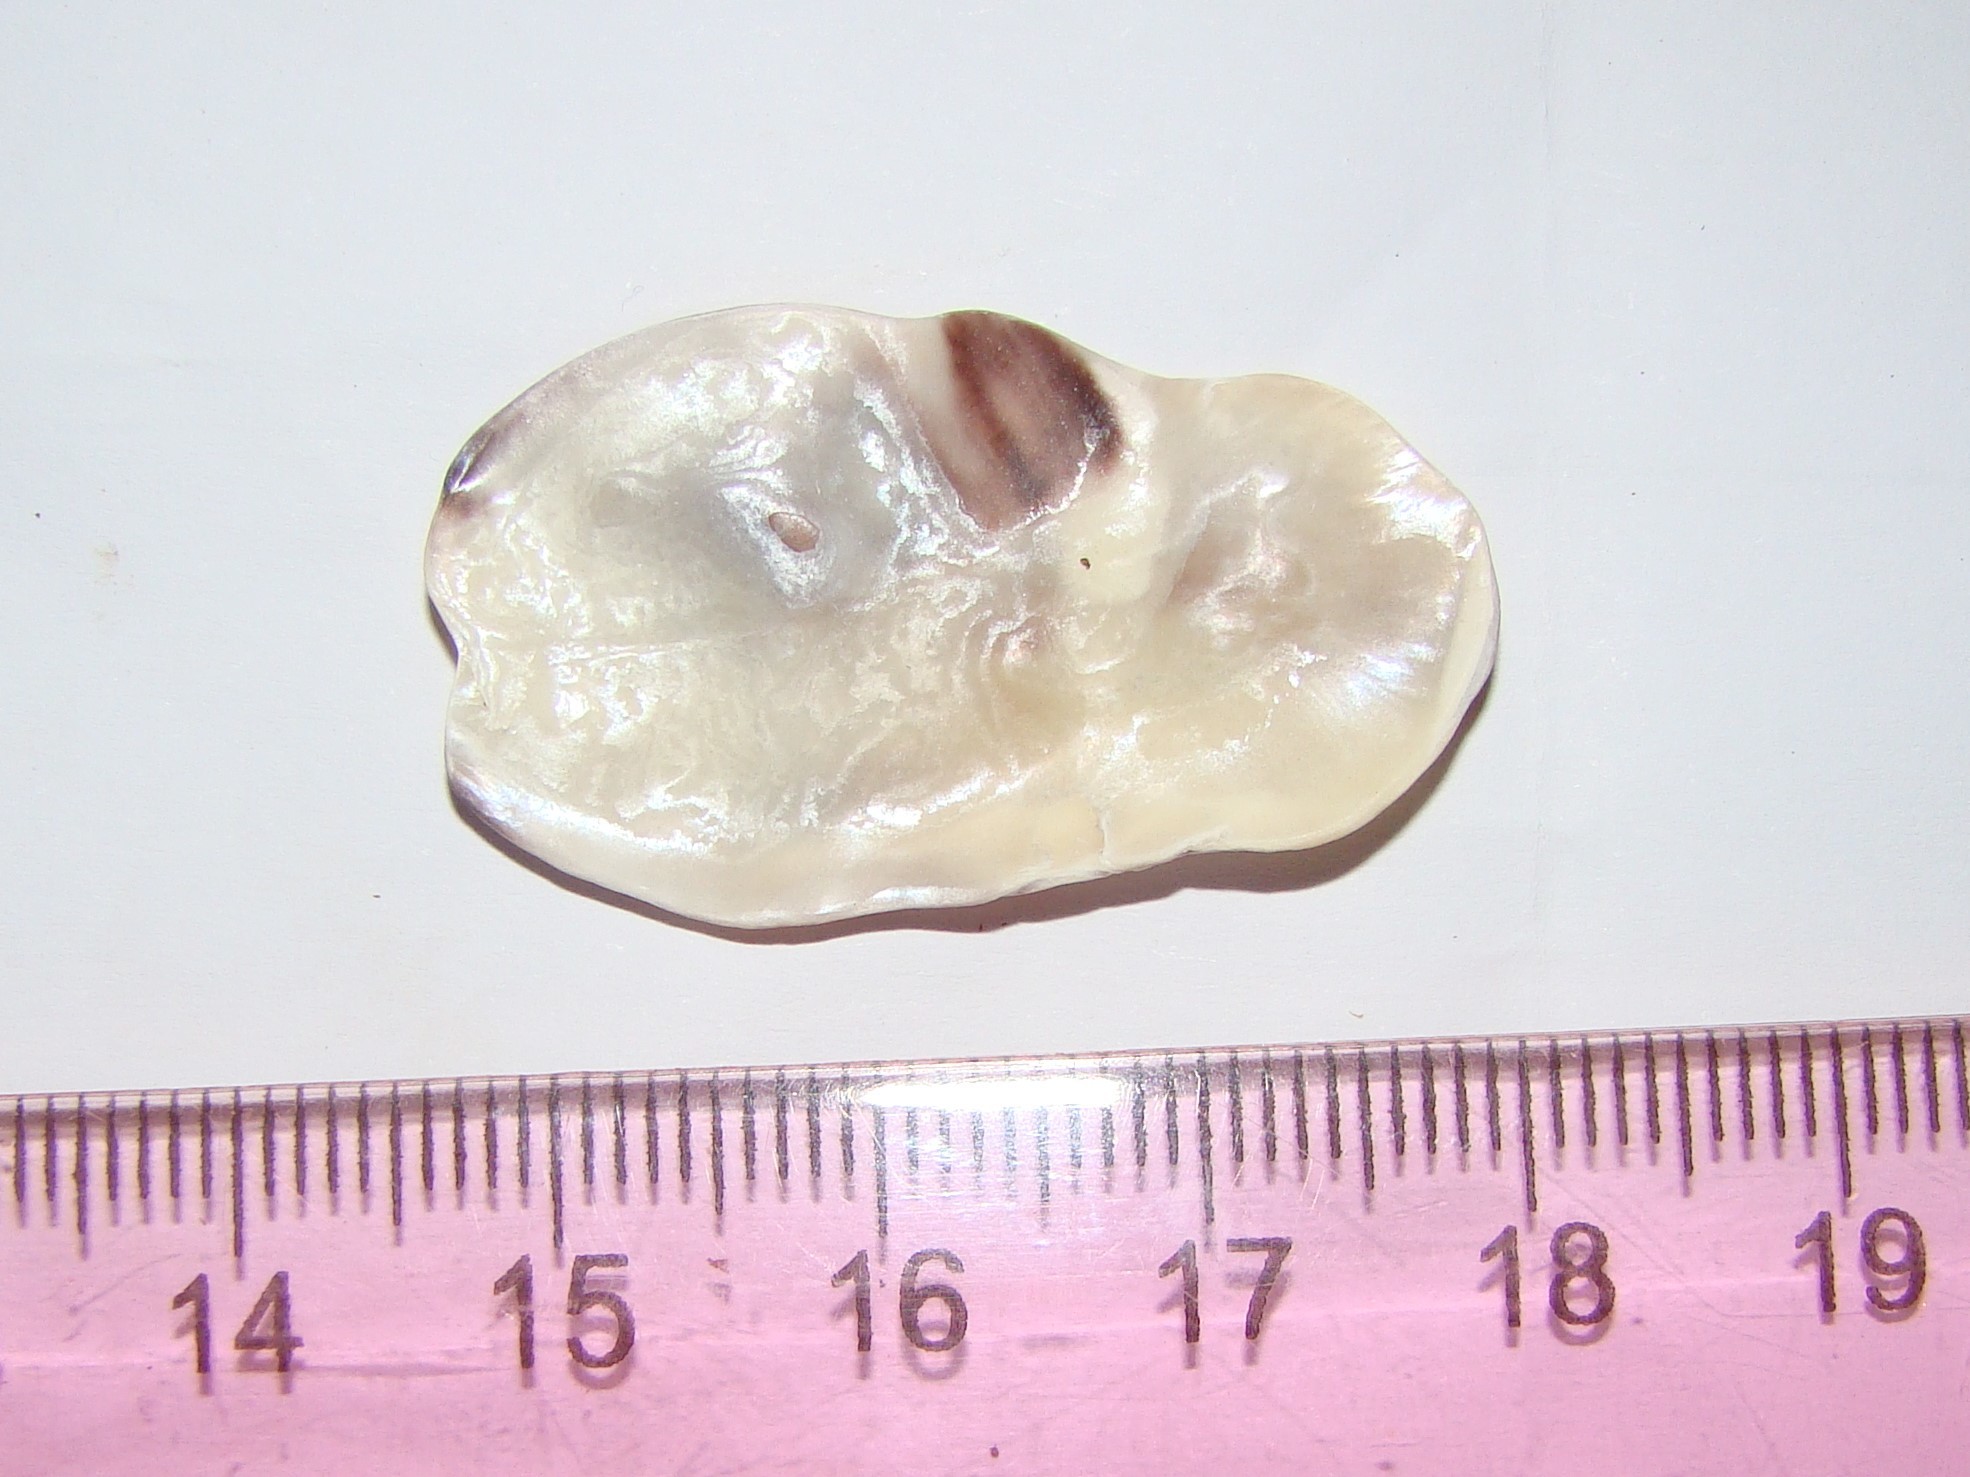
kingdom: Animalia
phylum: Mollusca
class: Bivalvia
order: Ostreida
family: Ostreidae
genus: Magallana
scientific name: Magallana gigas
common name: Pacific oyster
